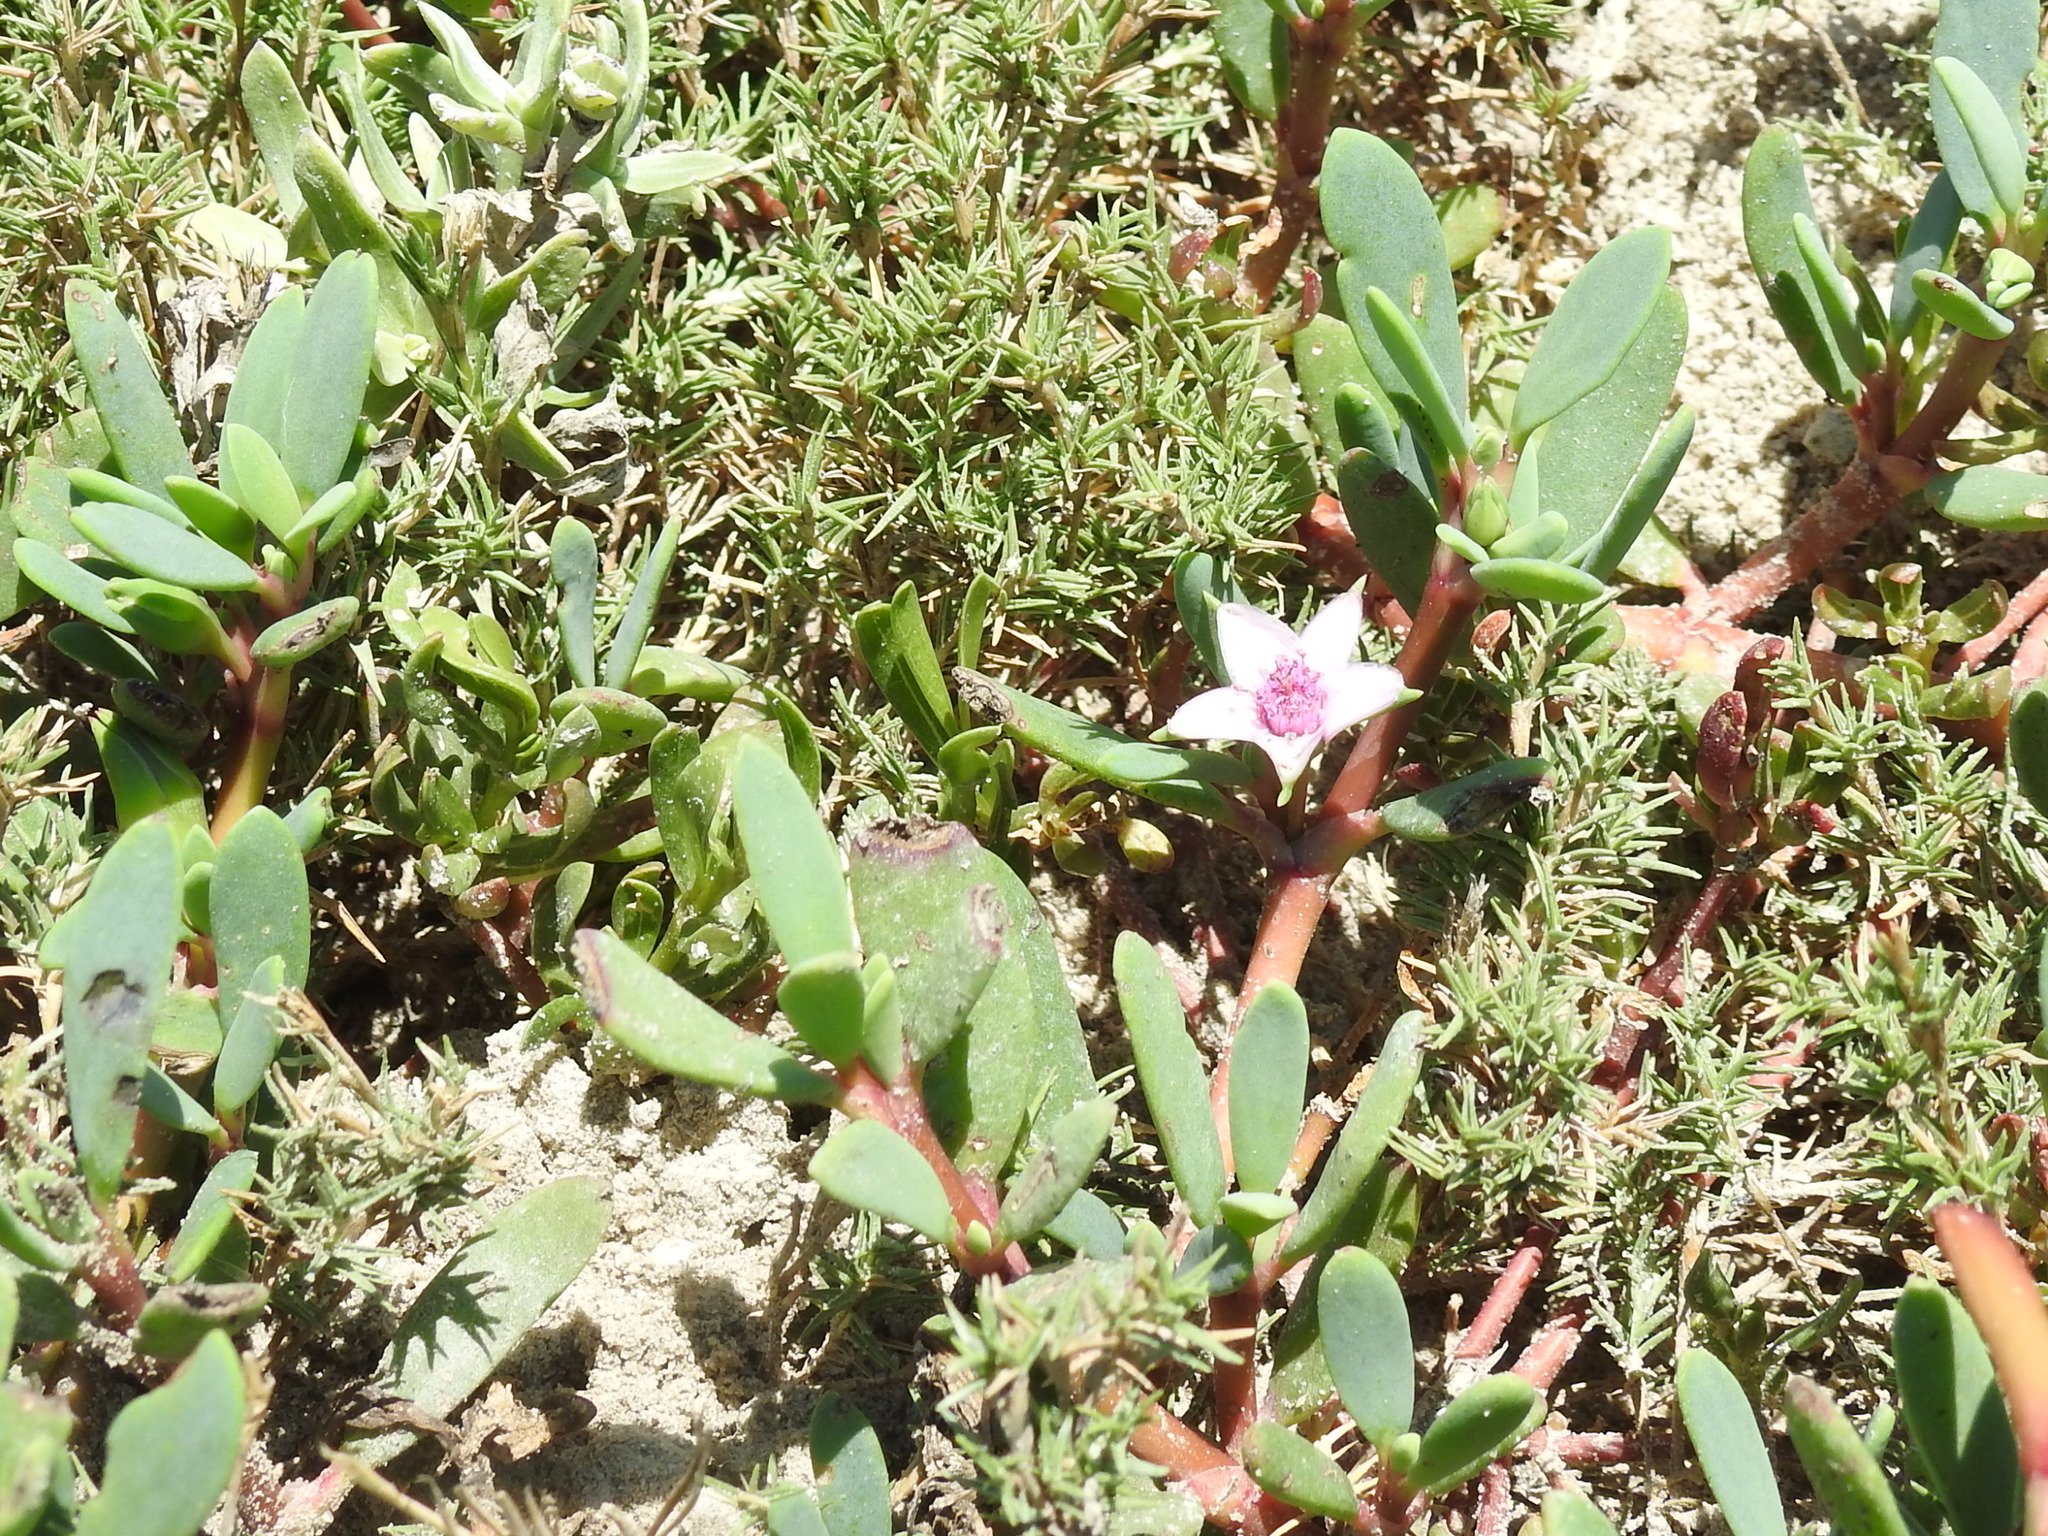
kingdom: Plantae
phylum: Tracheophyta
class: Magnoliopsida
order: Caryophyllales
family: Aizoaceae
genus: Sesuvium
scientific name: Sesuvium portulacastrum
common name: Sea-purslane
